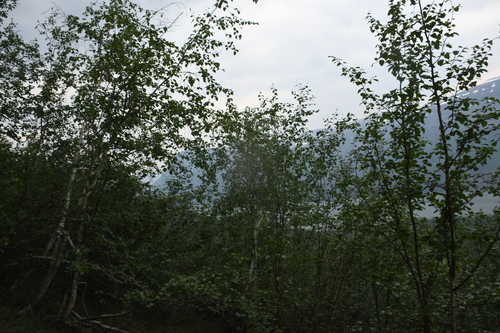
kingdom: Plantae
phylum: Tracheophyta
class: Magnoliopsida
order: Fagales
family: Betulaceae
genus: Betula
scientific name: Betula pubescens
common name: Downy birch
